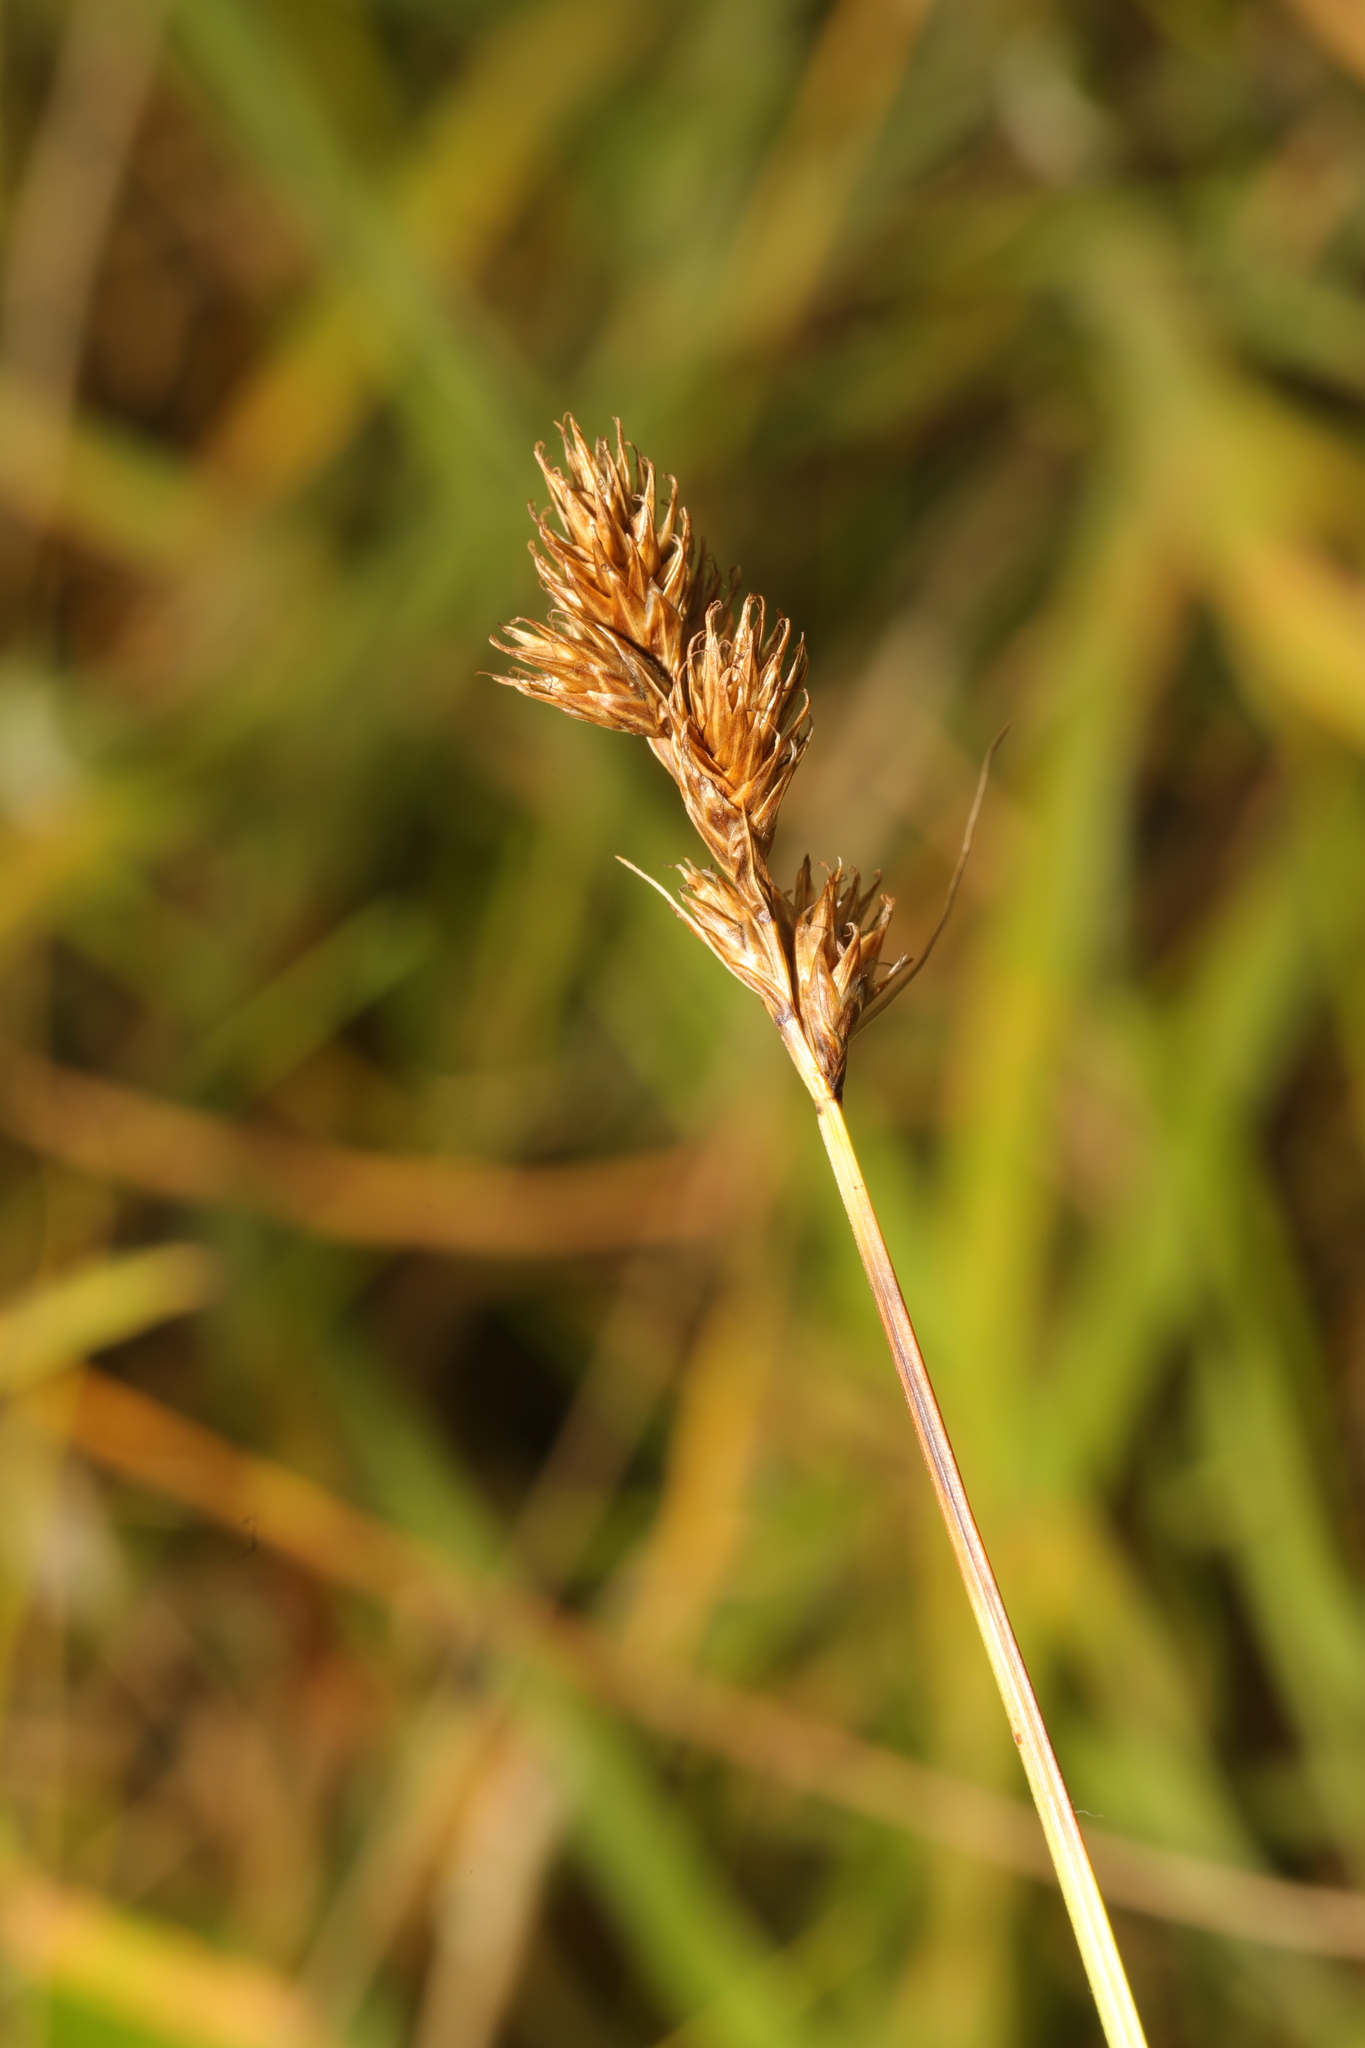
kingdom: Plantae
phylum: Tracheophyta
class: Liliopsida
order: Poales
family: Cyperaceae
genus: Carex
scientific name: Carex leporina
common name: Oval sedge
